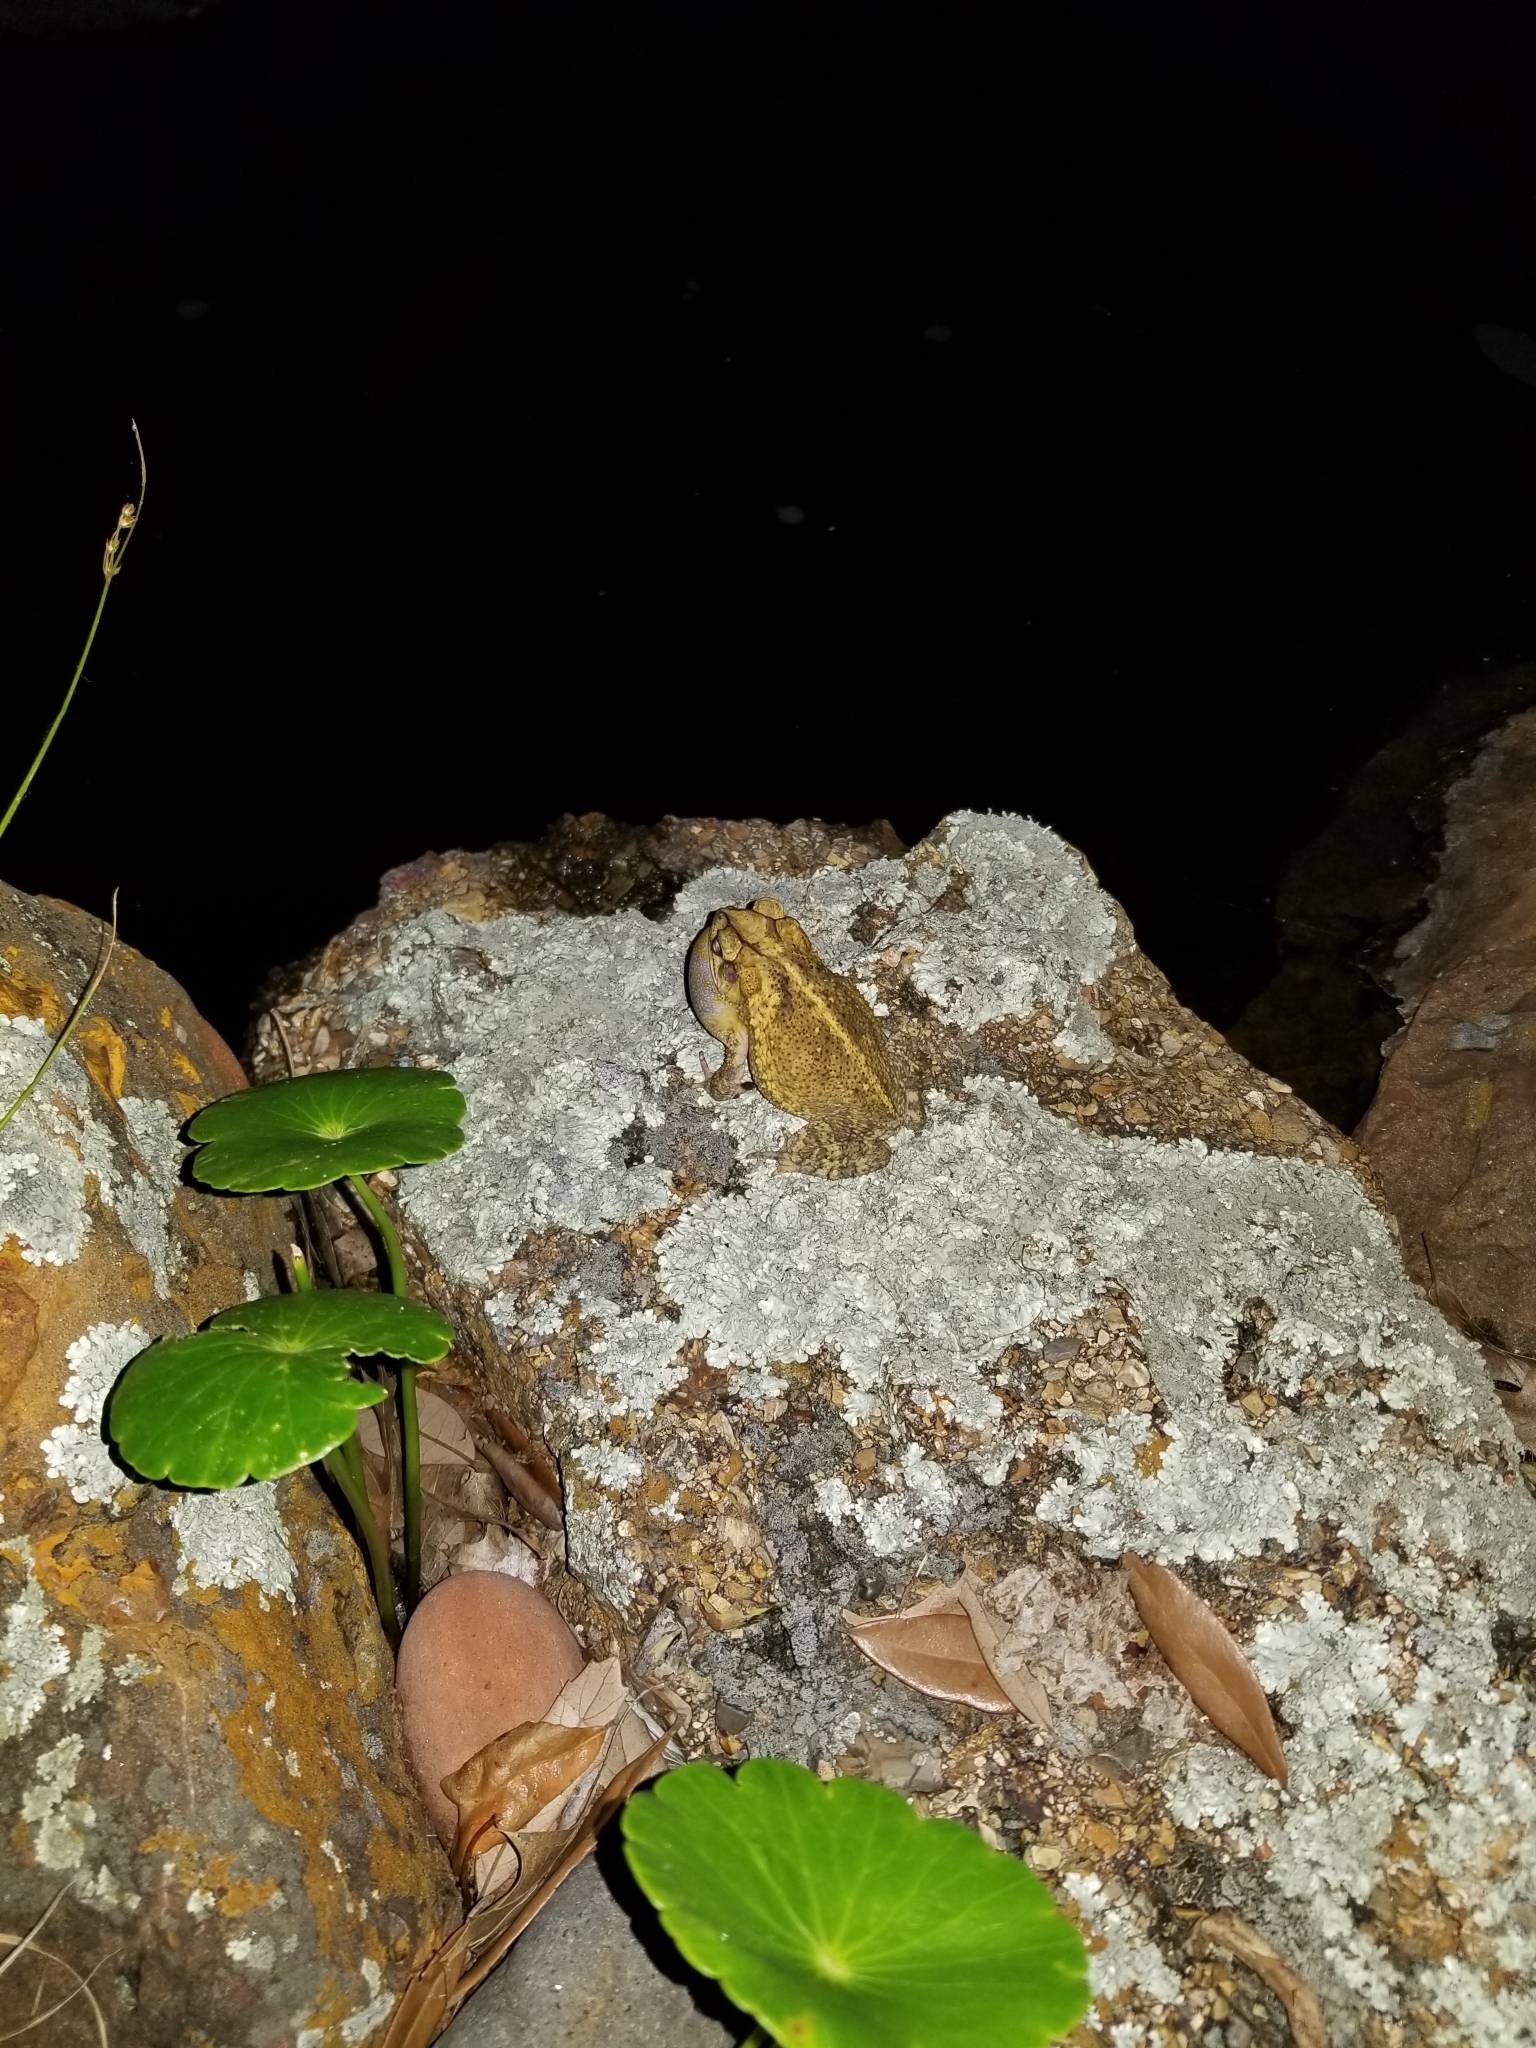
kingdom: Animalia
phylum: Chordata
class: Amphibia
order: Anura
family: Bufonidae
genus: Incilius
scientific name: Incilius nebulifer
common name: Gulf coast toad
